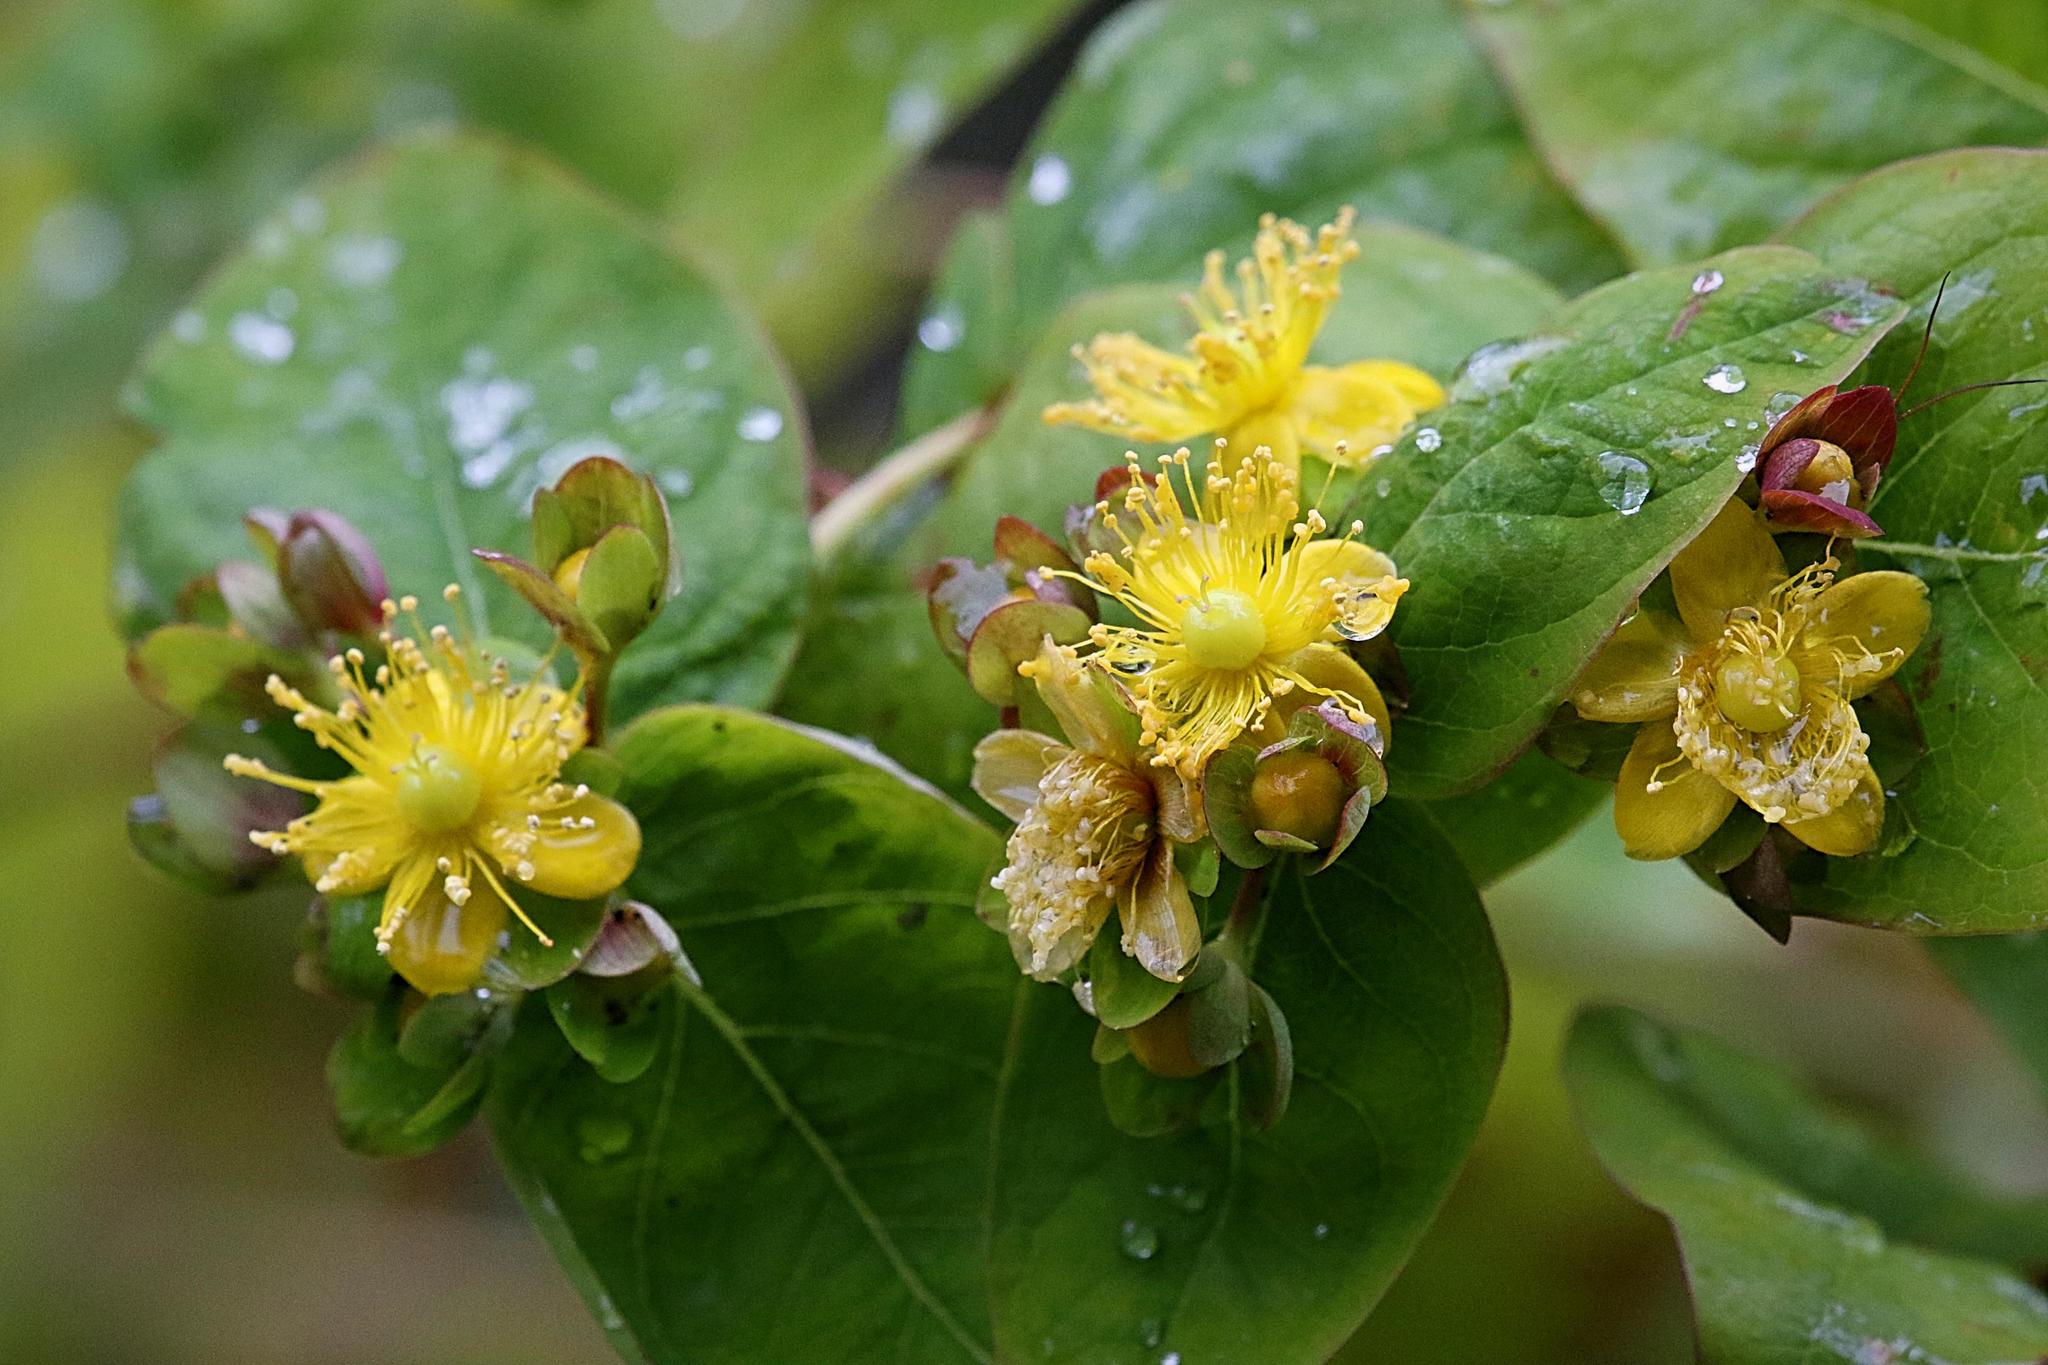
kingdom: Plantae
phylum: Tracheophyta
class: Magnoliopsida
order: Malpighiales
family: Hypericaceae
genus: Hypericum
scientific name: Hypericum androsaemum
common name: Sweet-amber
